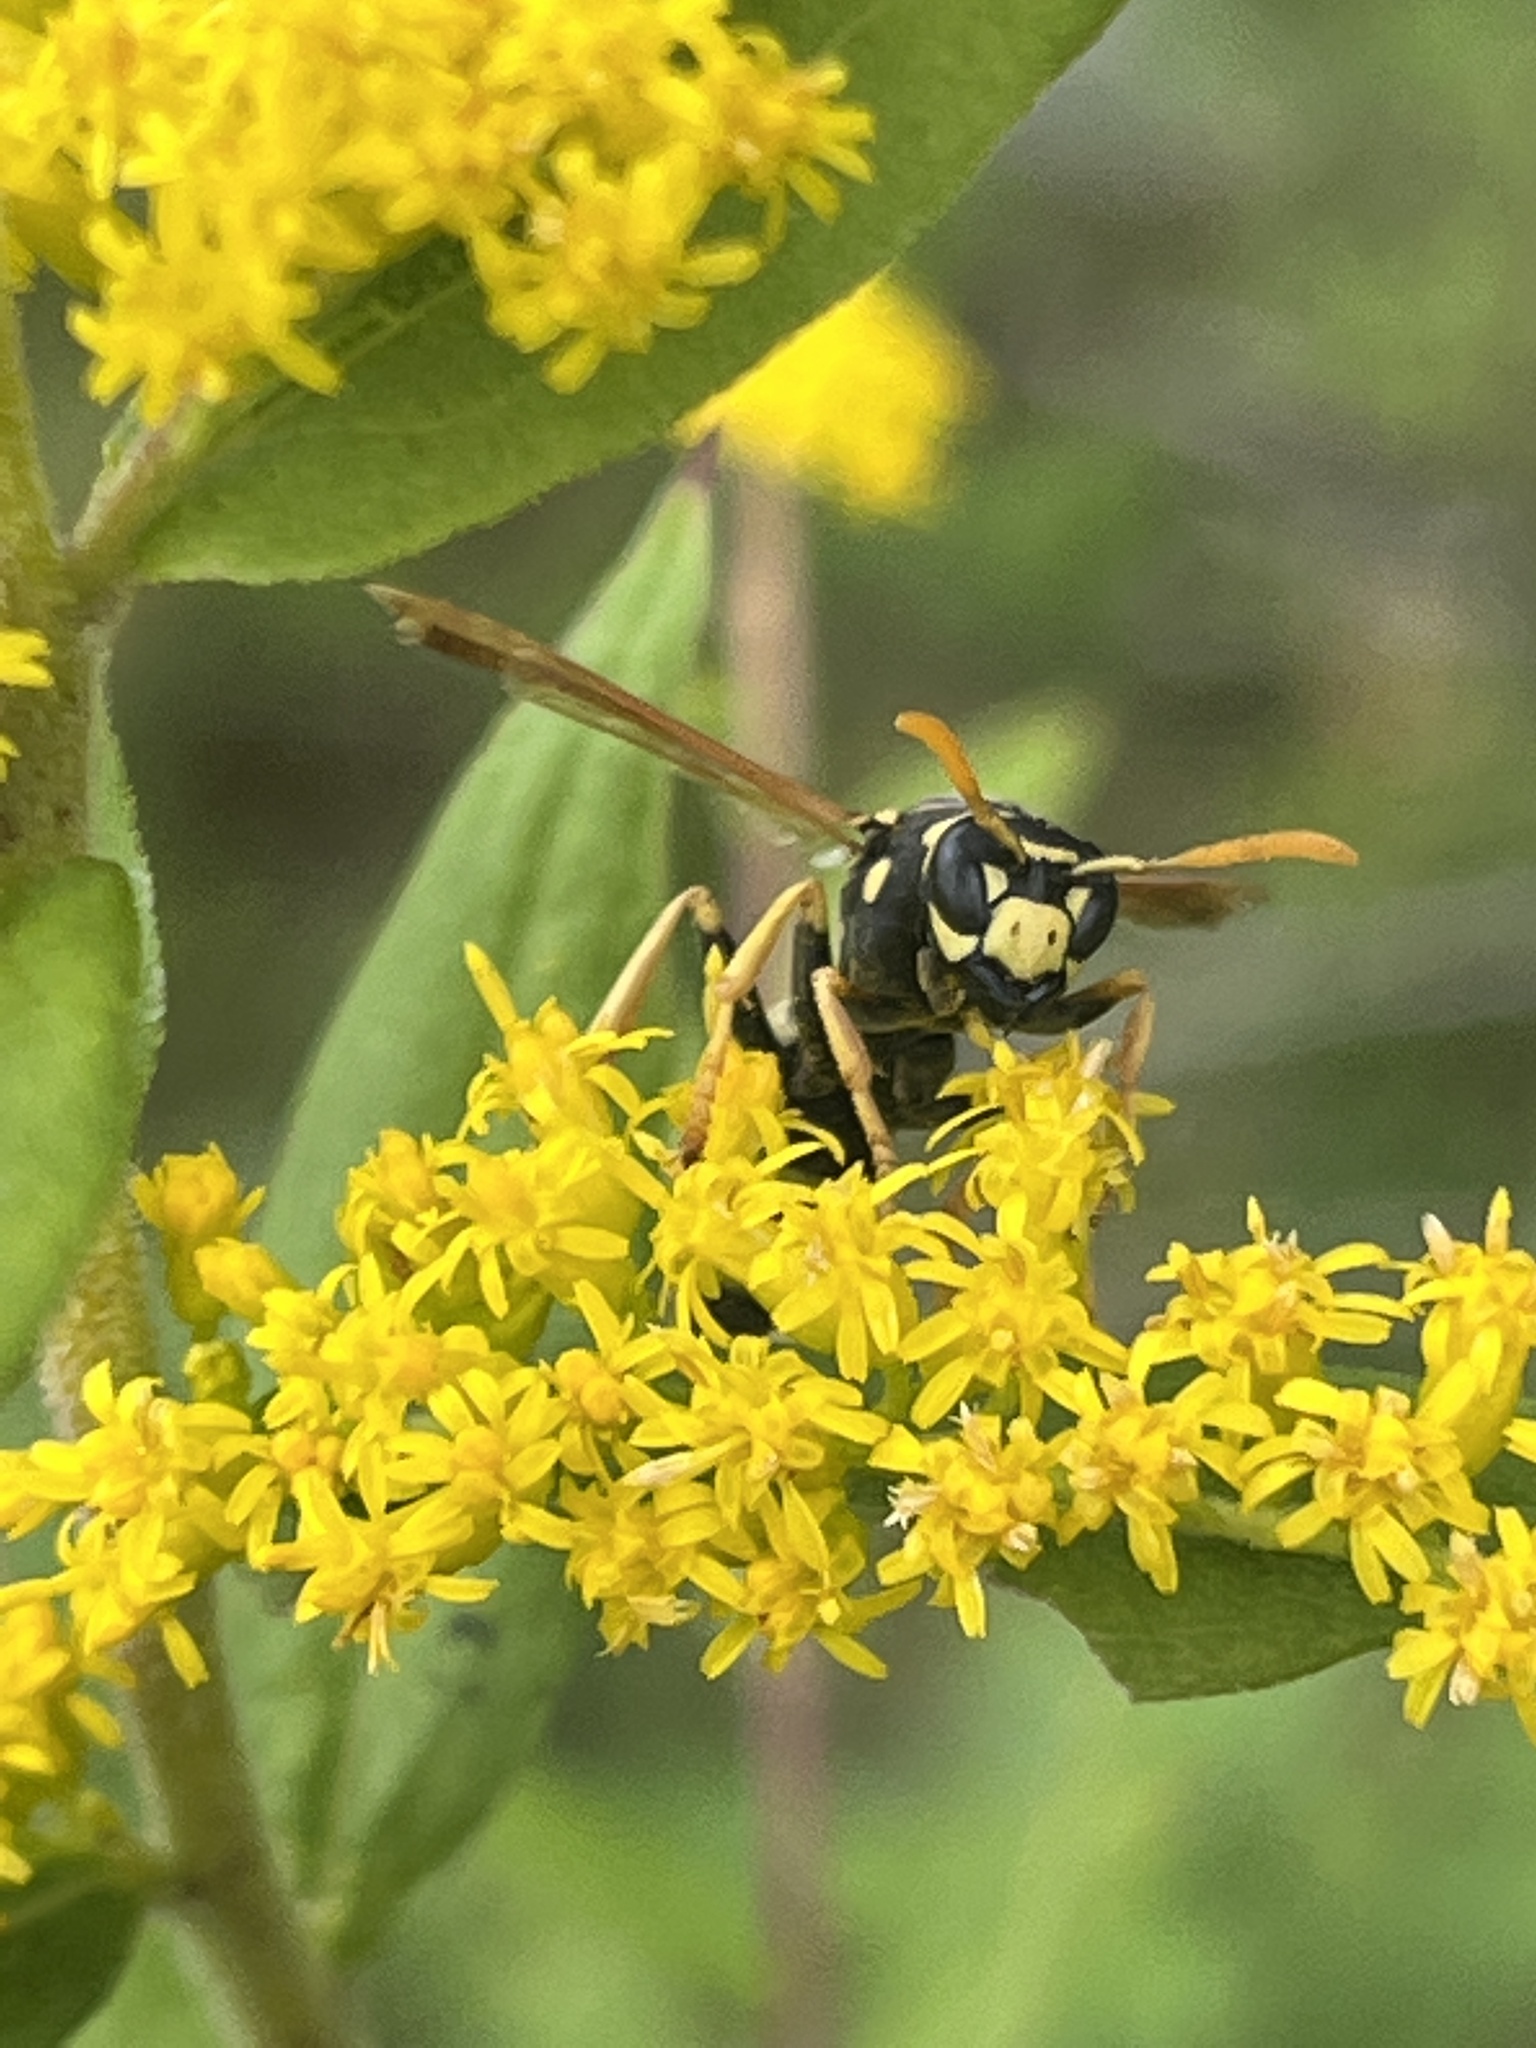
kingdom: Animalia
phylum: Arthropoda
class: Insecta
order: Hymenoptera
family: Eumenidae
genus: Polistes
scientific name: Polistes dominula
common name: Paper wasp
